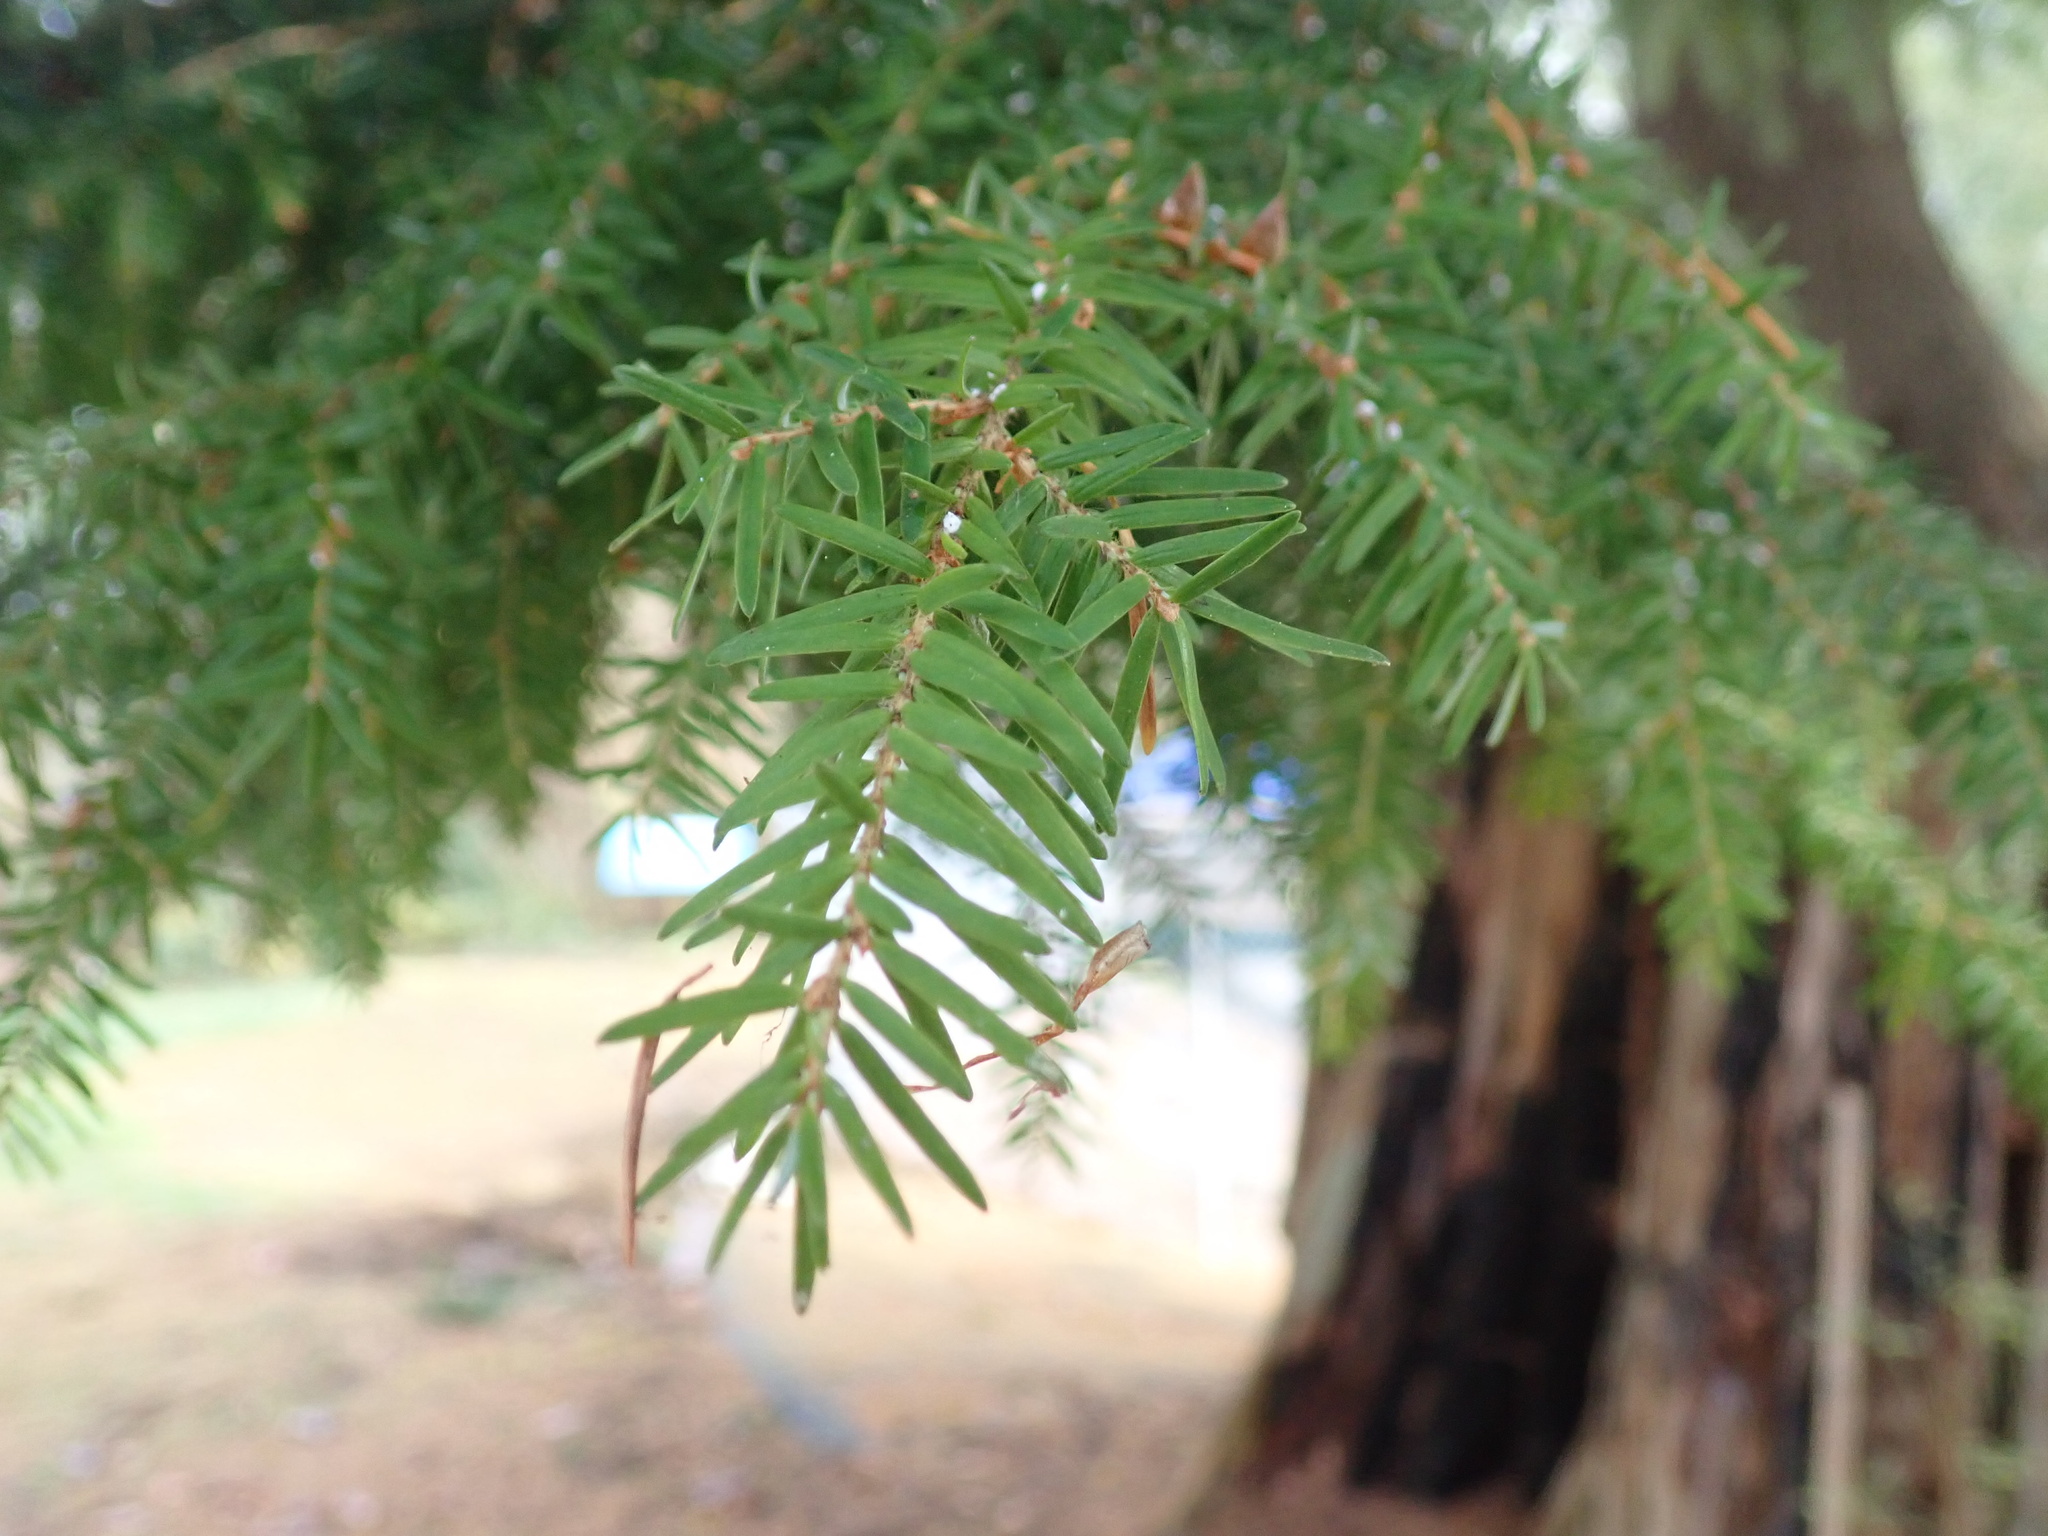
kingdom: Plantae
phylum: Tracheophyta
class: Pinopsida
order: Pinales
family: Pinaceae
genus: Tsuga
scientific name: Tsuga heterophylla
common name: Western hemlock
